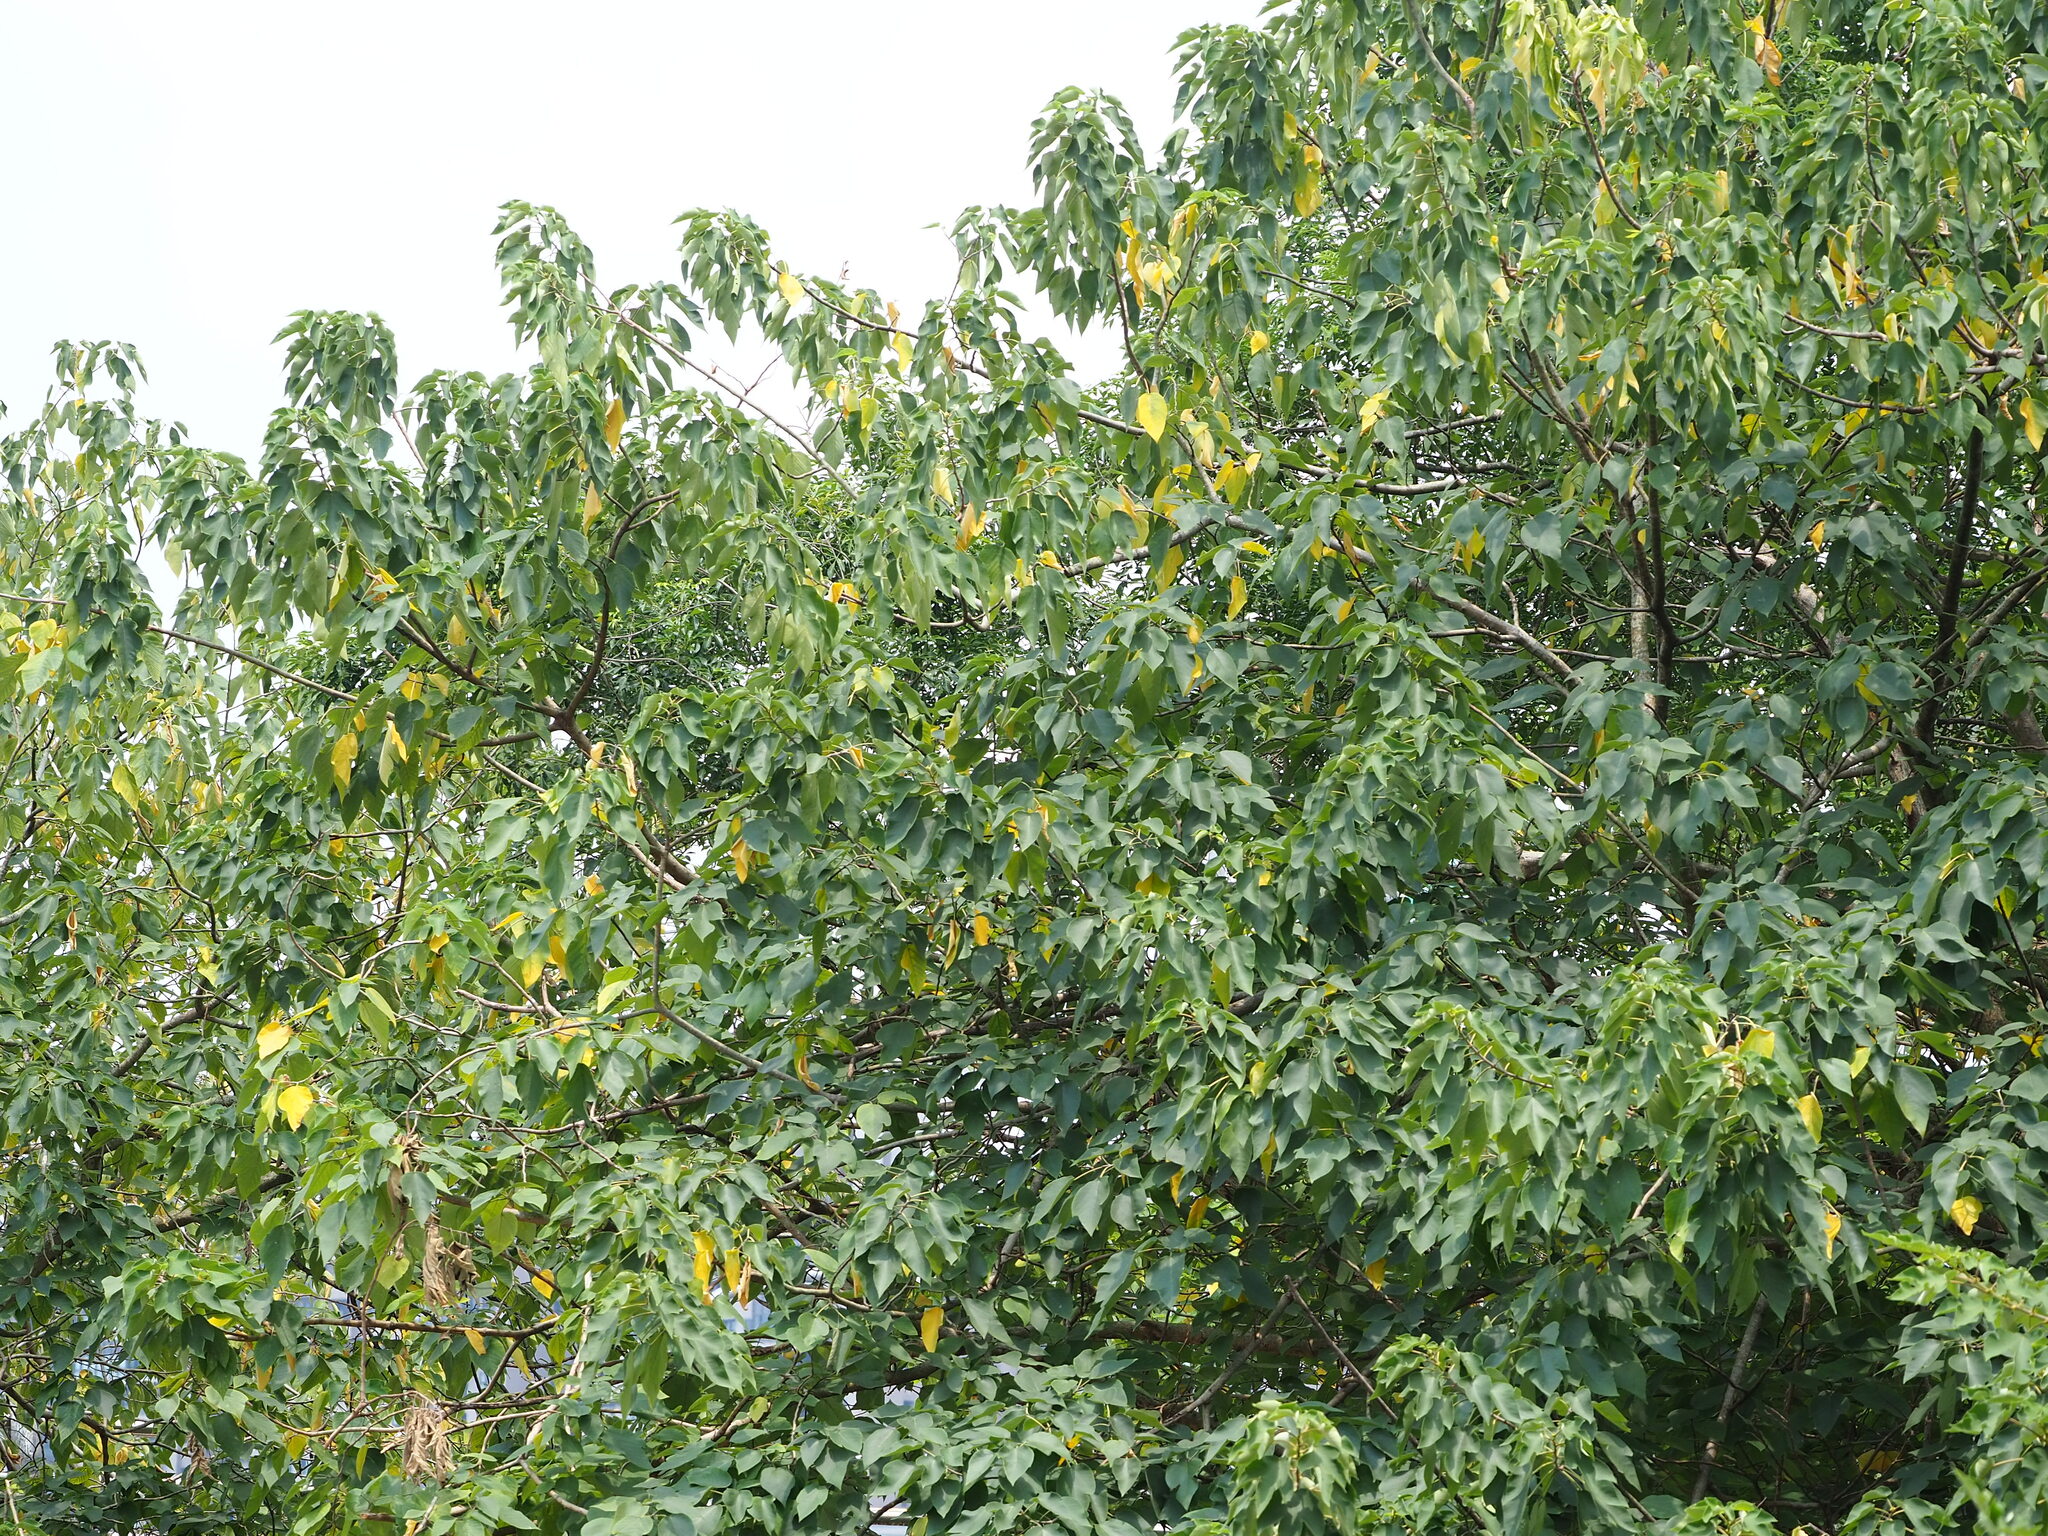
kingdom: Plantae
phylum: Tracheophyta
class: Magnoliopsida
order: Rosales
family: Moraceae
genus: Broussonetia
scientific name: Broussonetia papyrifera
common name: Paper mulberry
